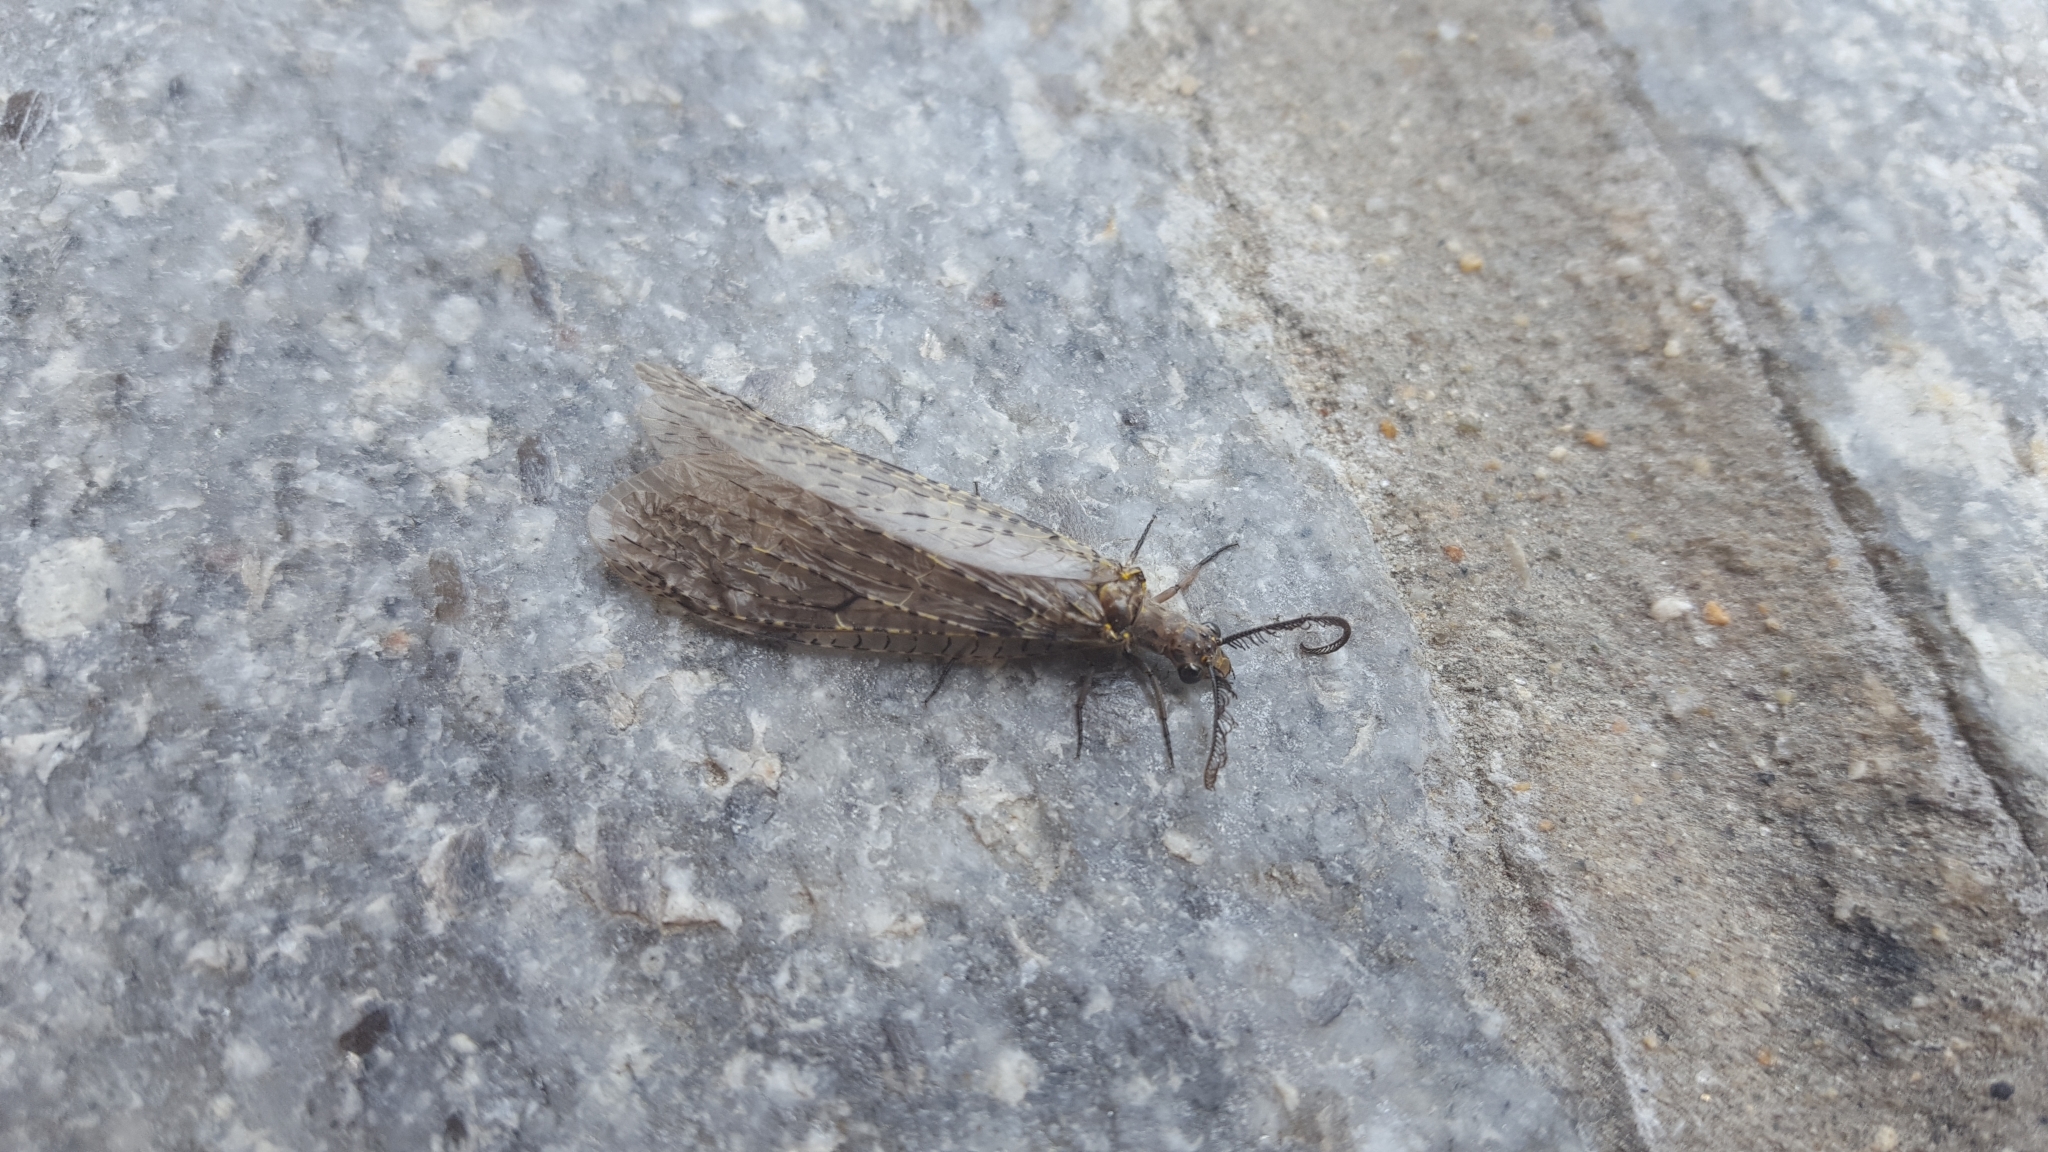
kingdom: Animalia
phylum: Arthropoda
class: Insecta
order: Megaloptera
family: Corydalidae
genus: Chauliodes
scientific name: Chauliodes rastricornis
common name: Spring fishfly
